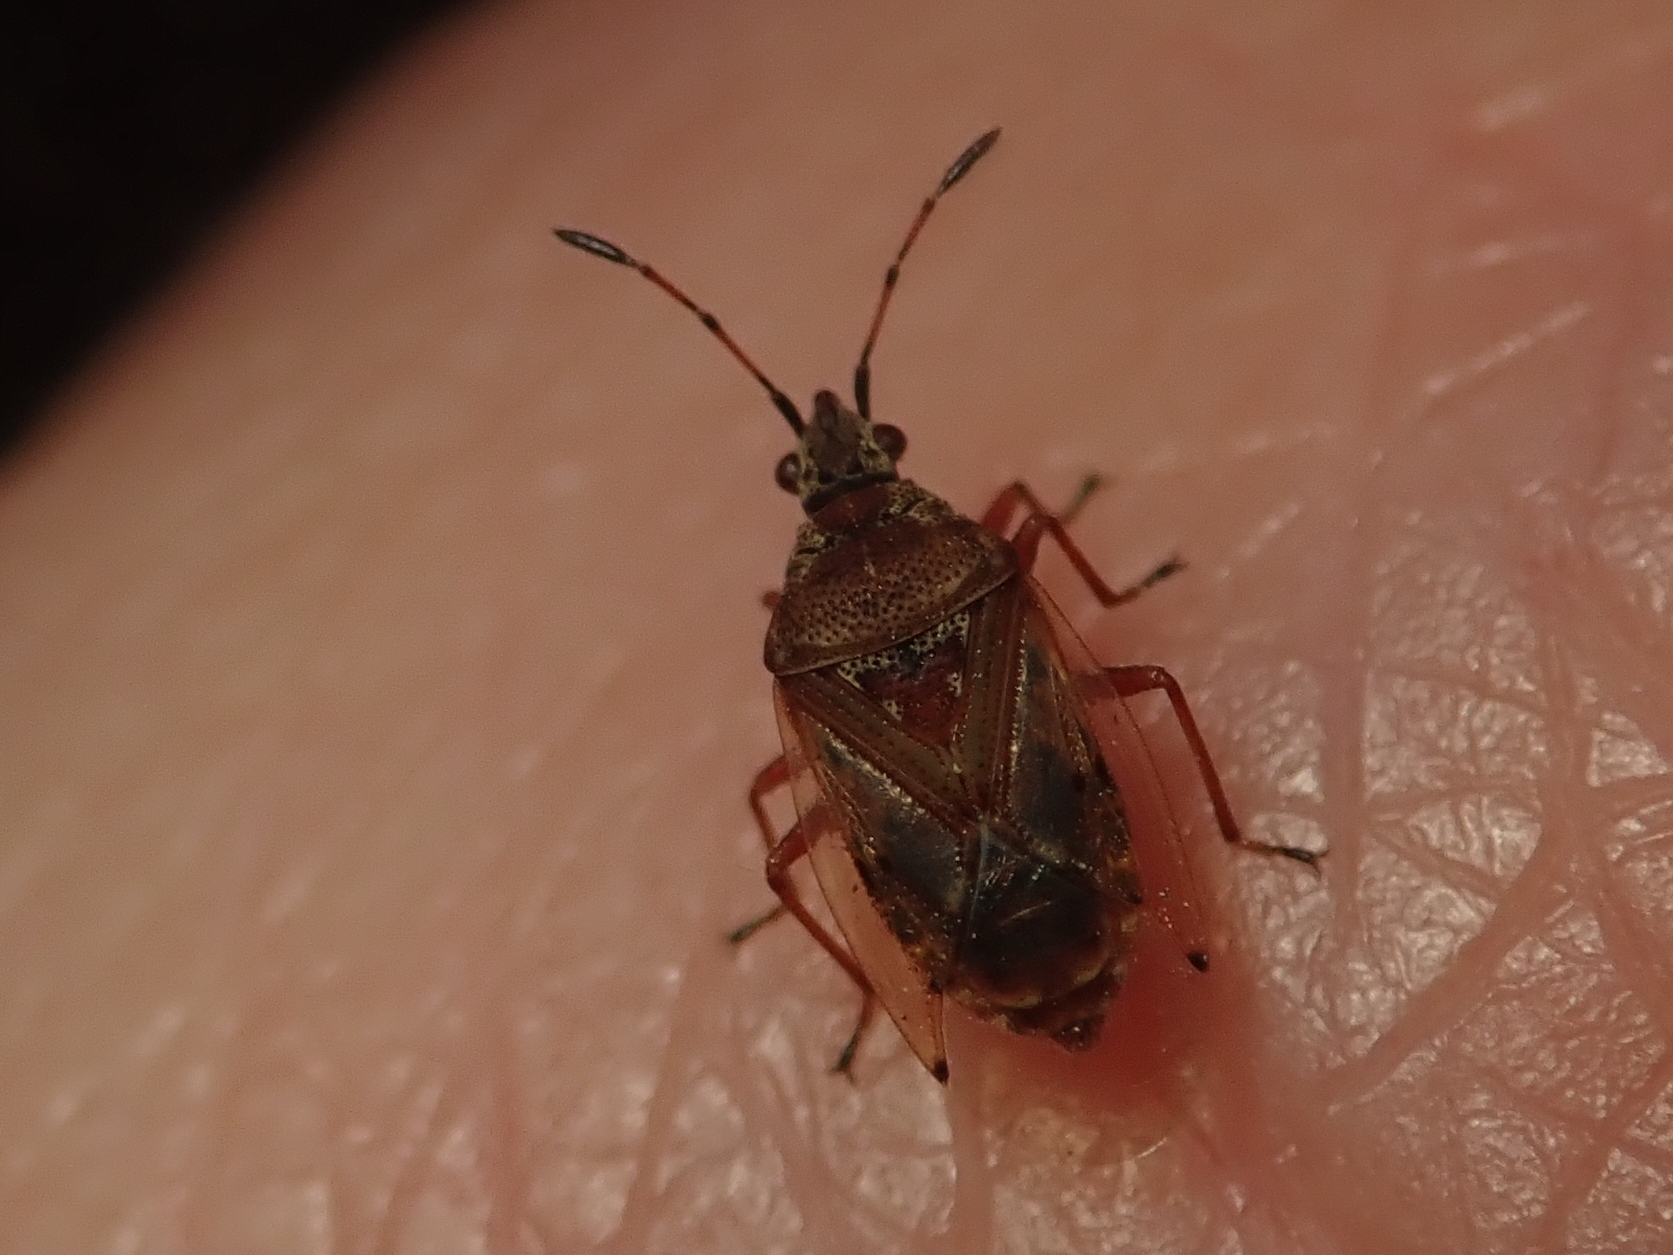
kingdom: Animalia
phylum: Arthropoda
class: Insecta
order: Hemiptera
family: Lygaeidae
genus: Kleidocerys
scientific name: Kleidocerys resedae
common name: Birch catkin bug
